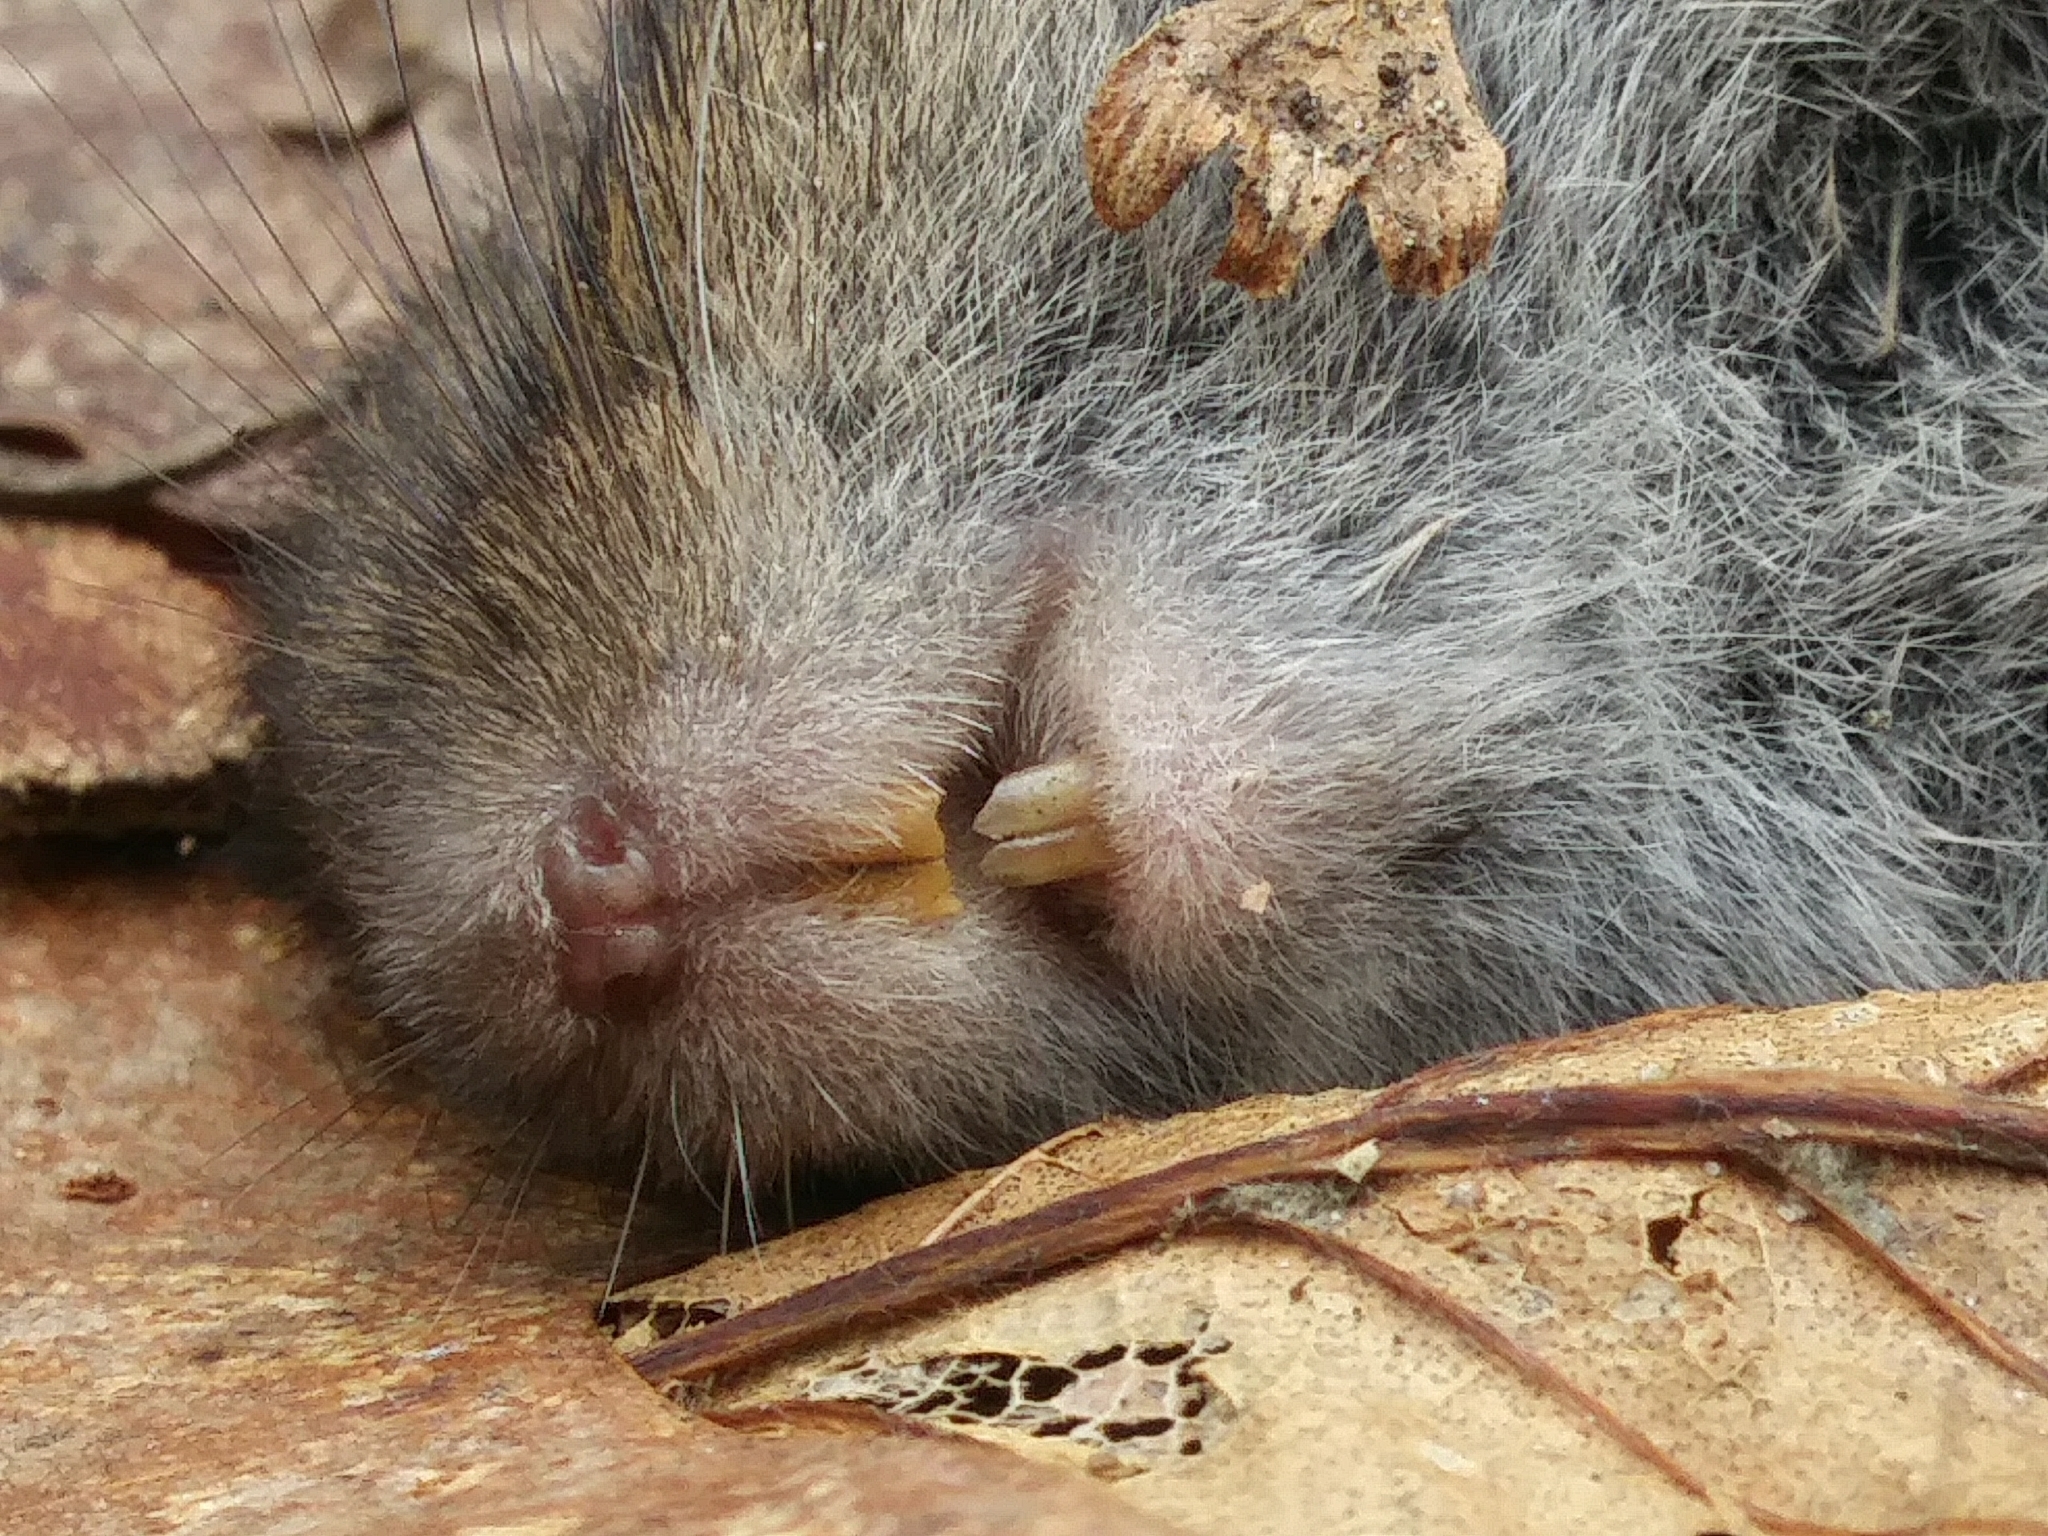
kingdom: Animalia
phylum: Chordata
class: Mammalia
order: Rodentia
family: Cricetidae
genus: Microtus
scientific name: Microtus pennsylvanicus
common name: Meadow vole
